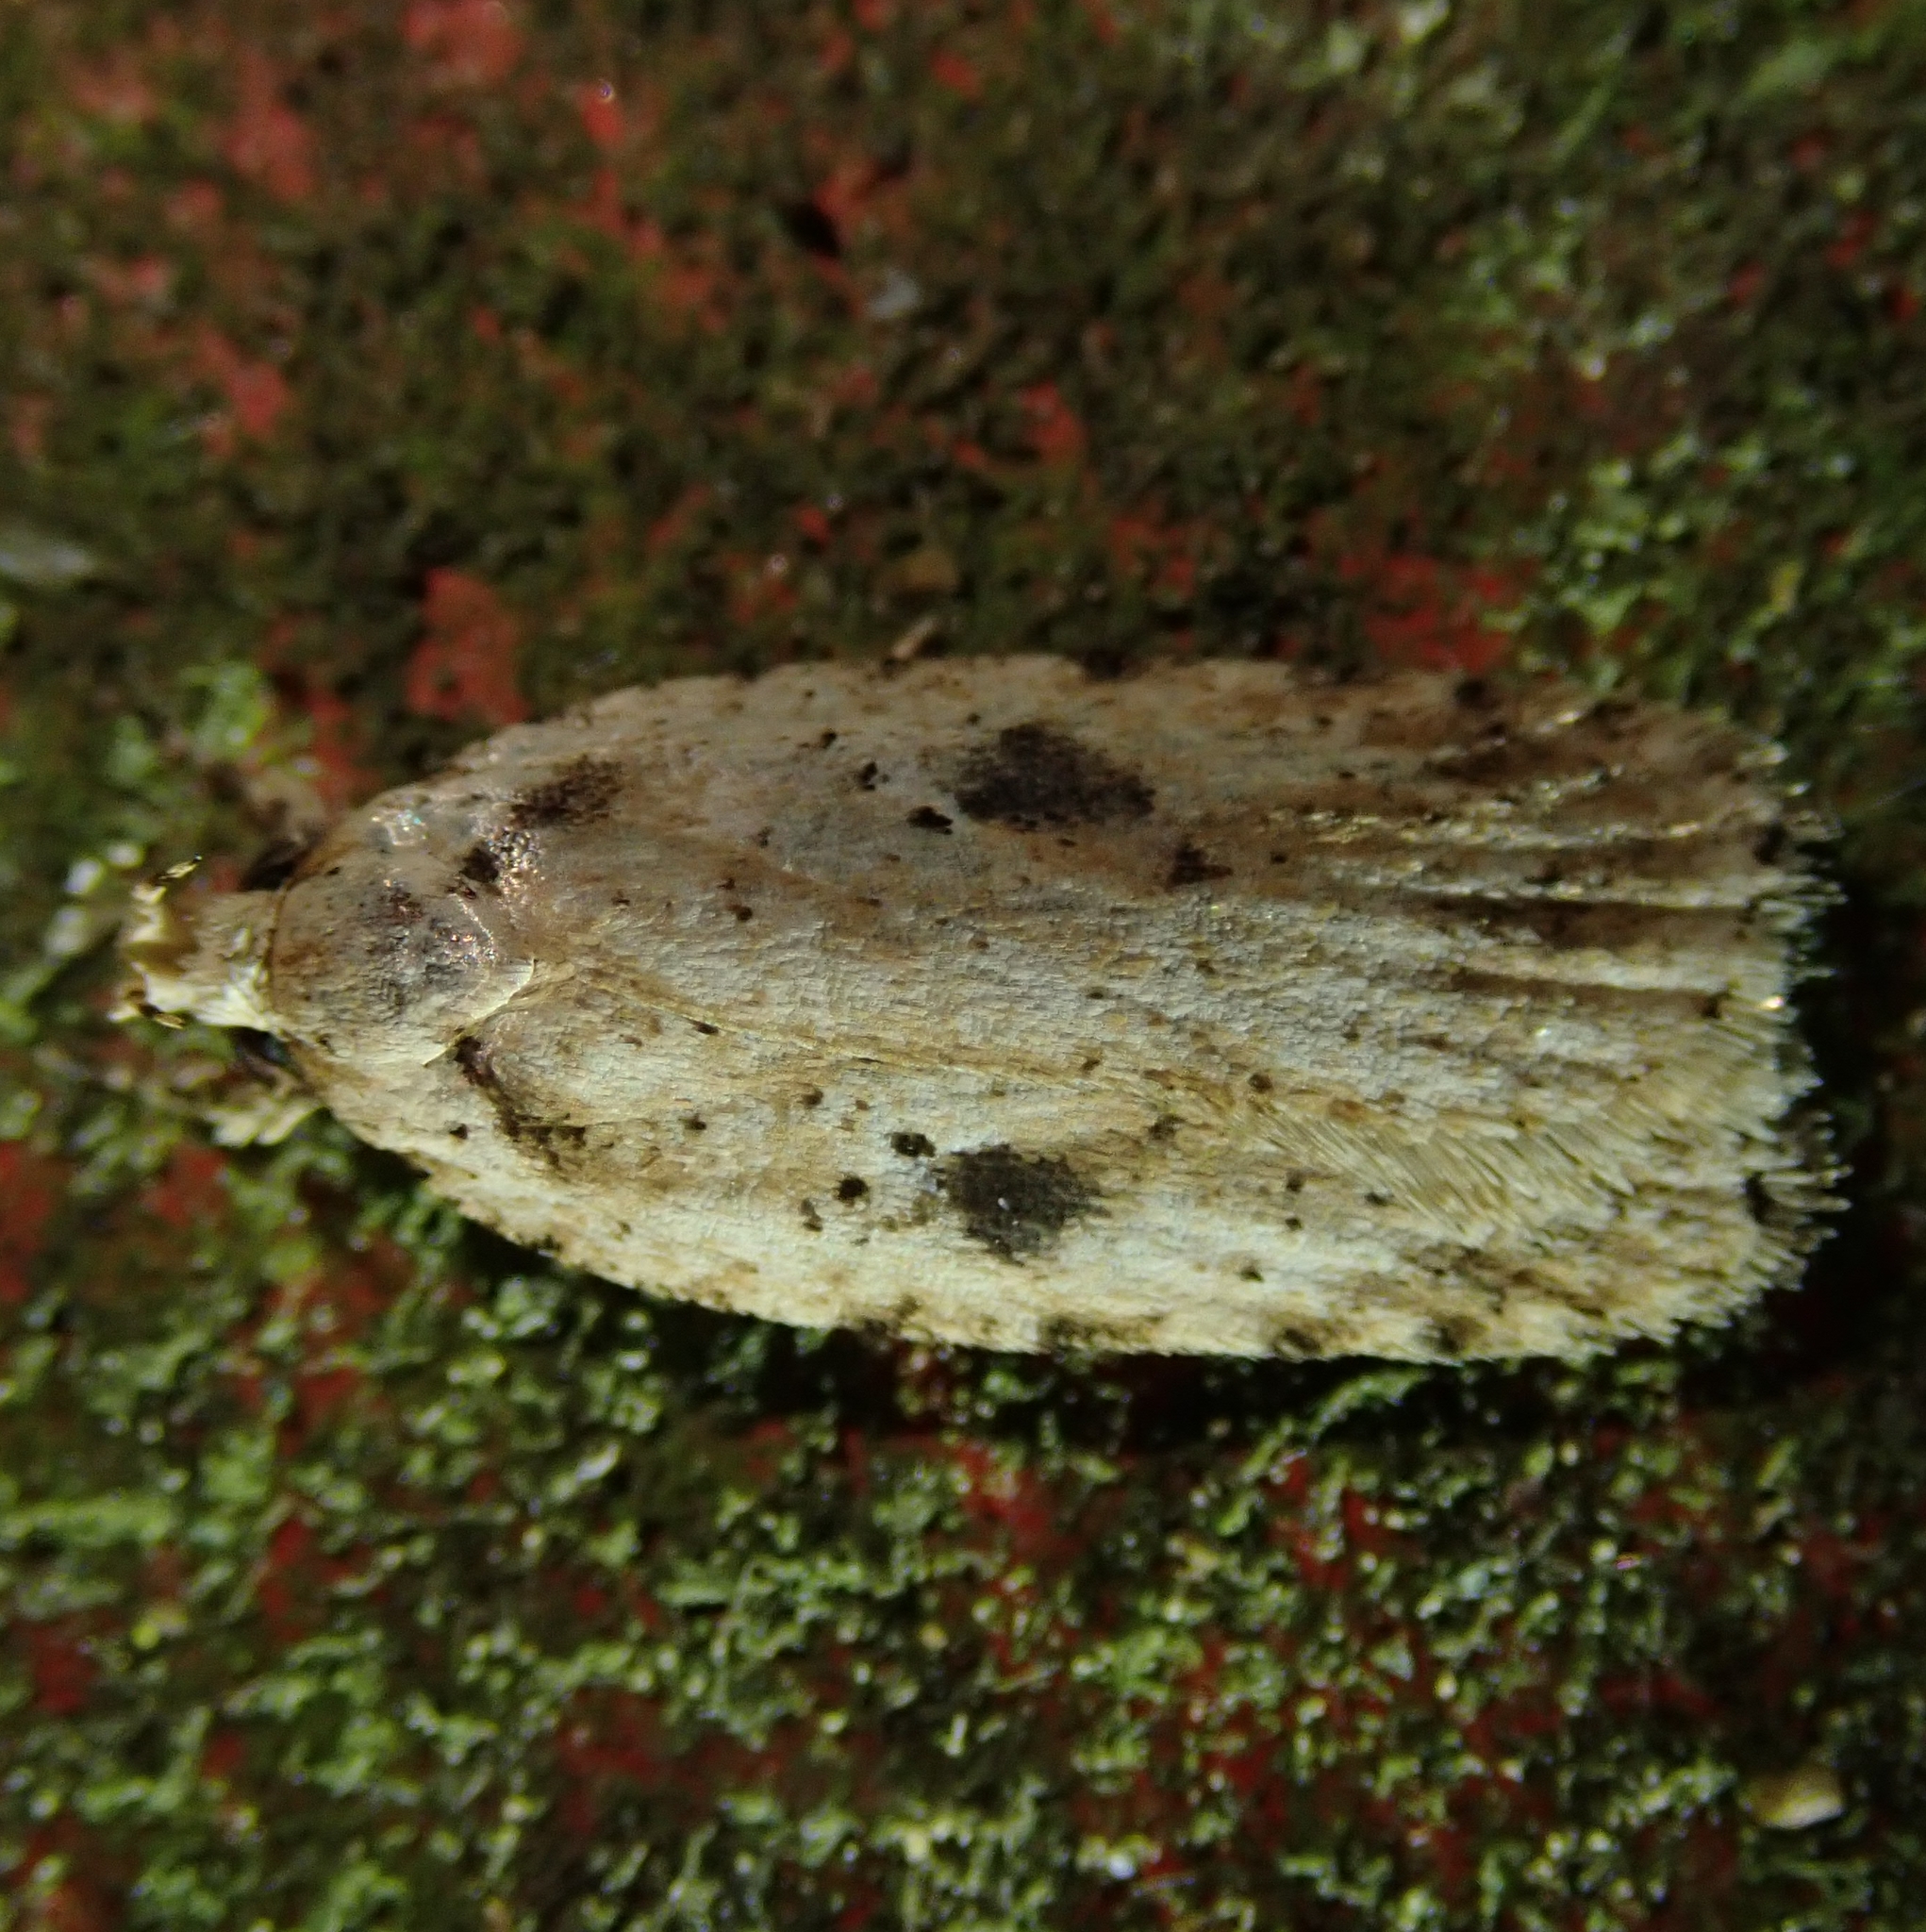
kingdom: Animalia
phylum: Arthropoda
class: Insecta
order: Lepidoptera
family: Depressariidae
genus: Agonopterix
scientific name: Agonopterix arenella
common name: Brindled flat-body
